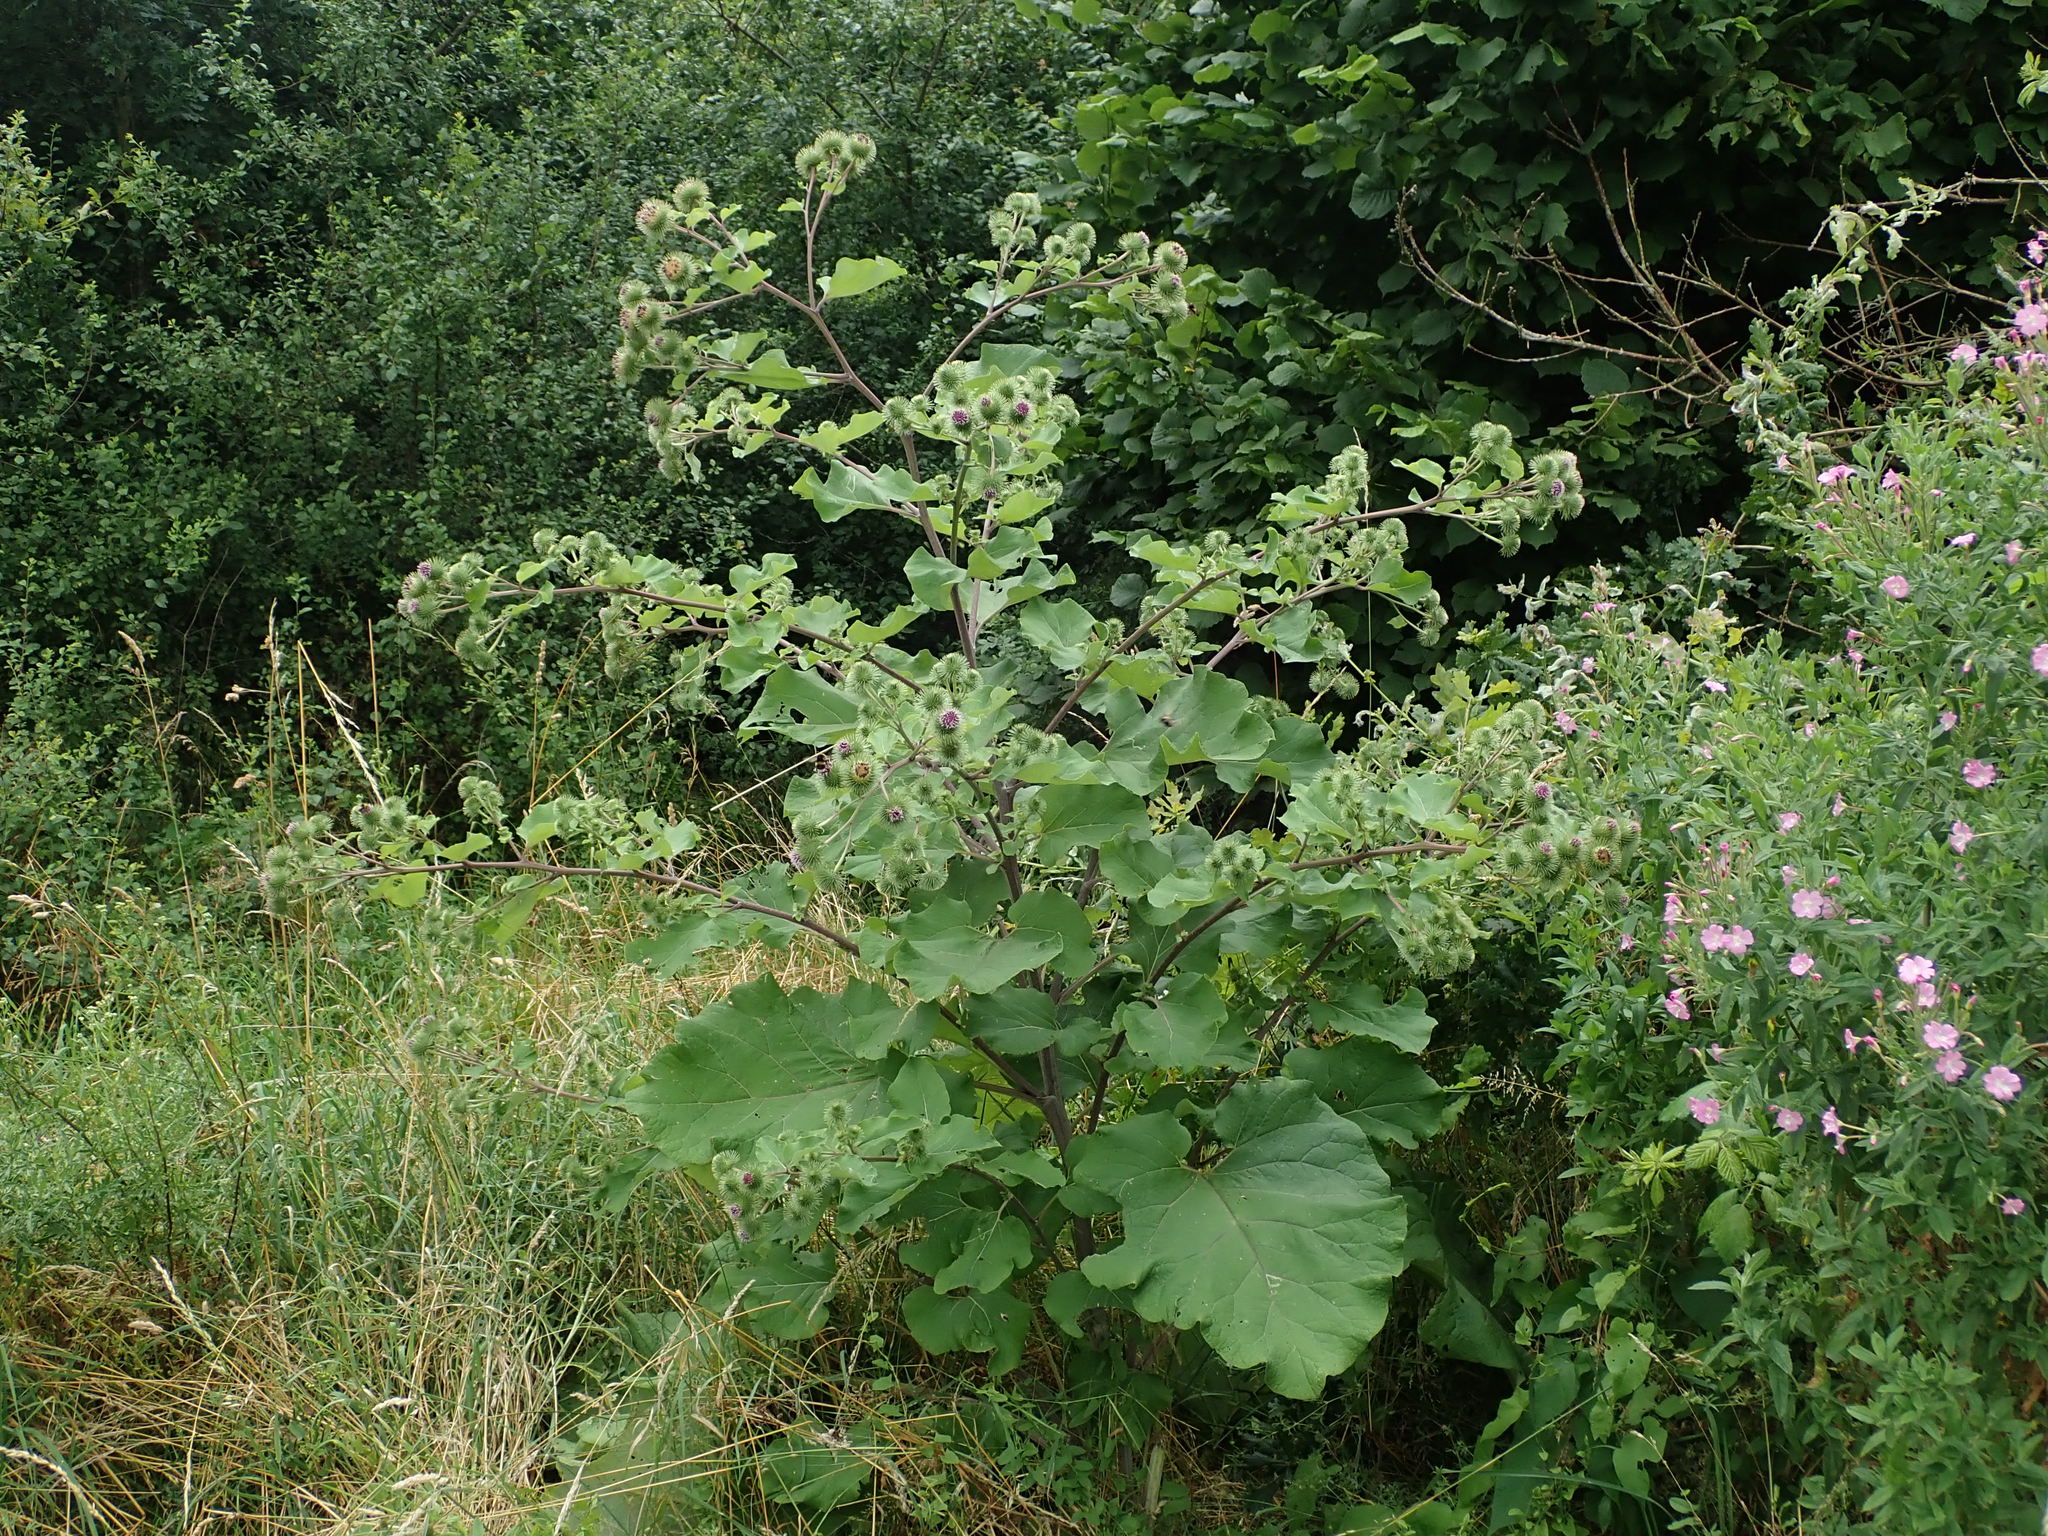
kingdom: Plantae
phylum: Tracheophyta
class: Magnoliopsida
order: Asterales
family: Asteraceae
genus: Arctium
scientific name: Arctium lappa
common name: Greater burdock
